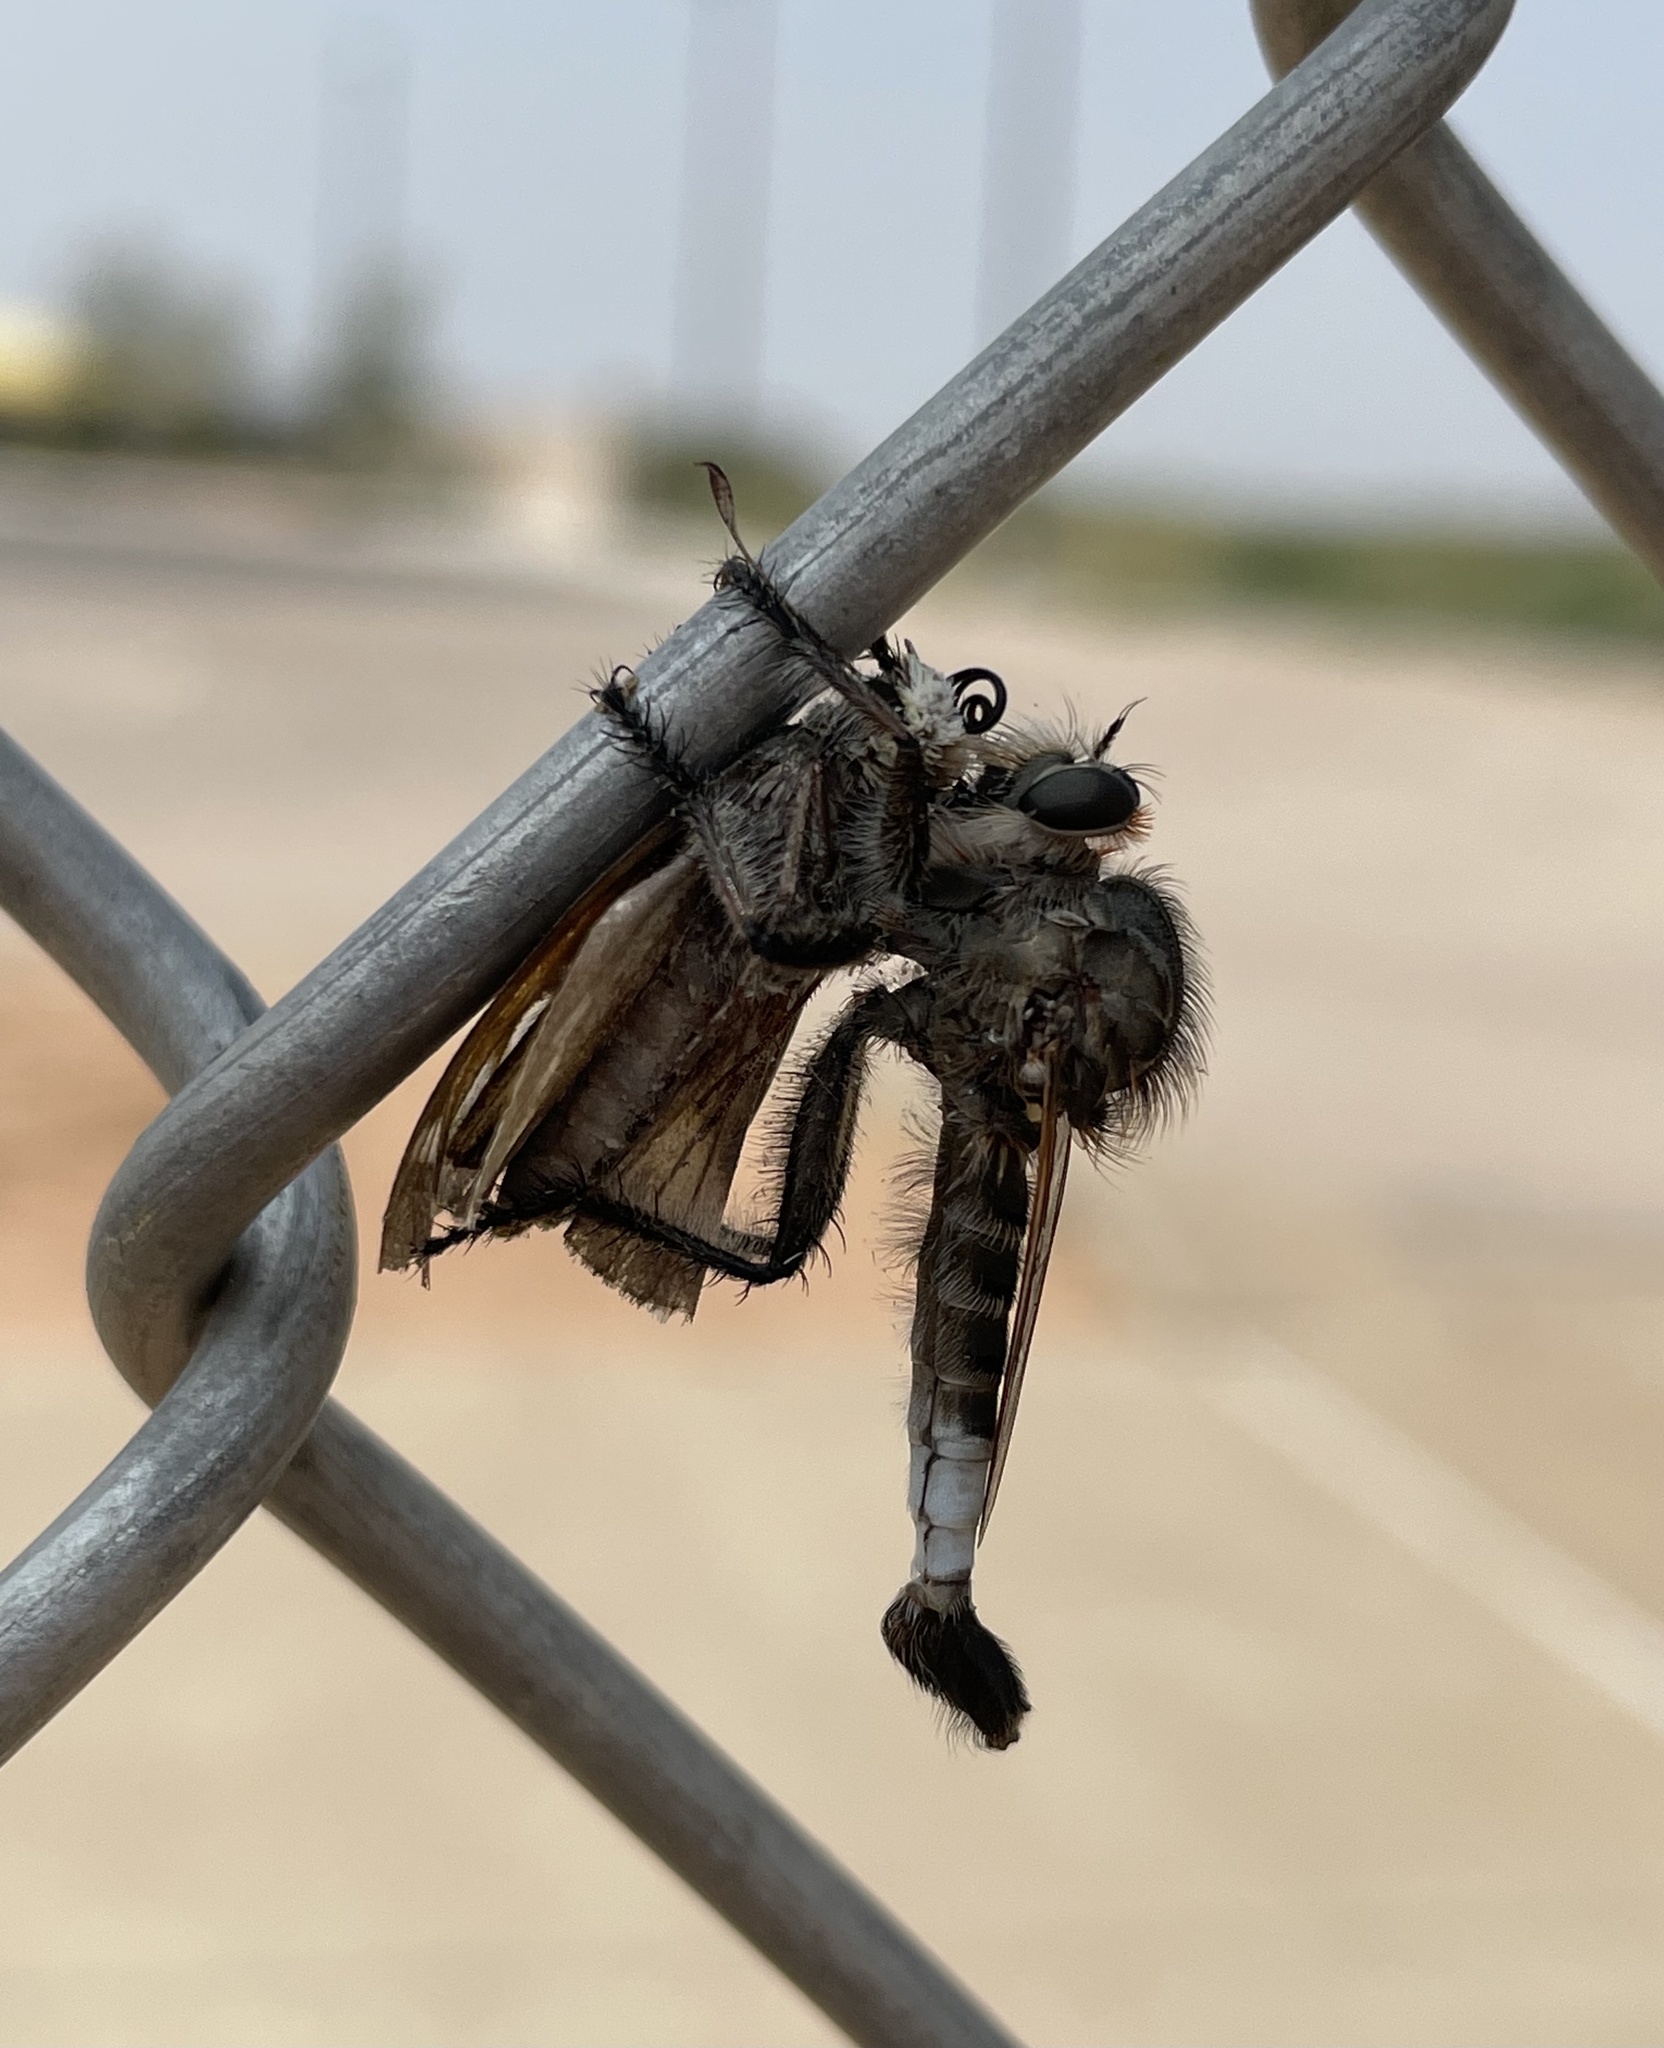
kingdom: Animalia
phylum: Arthropoda
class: Insecta
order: Lepidoptera
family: Hesperiidae
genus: Atalopedes
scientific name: Atalopedes
